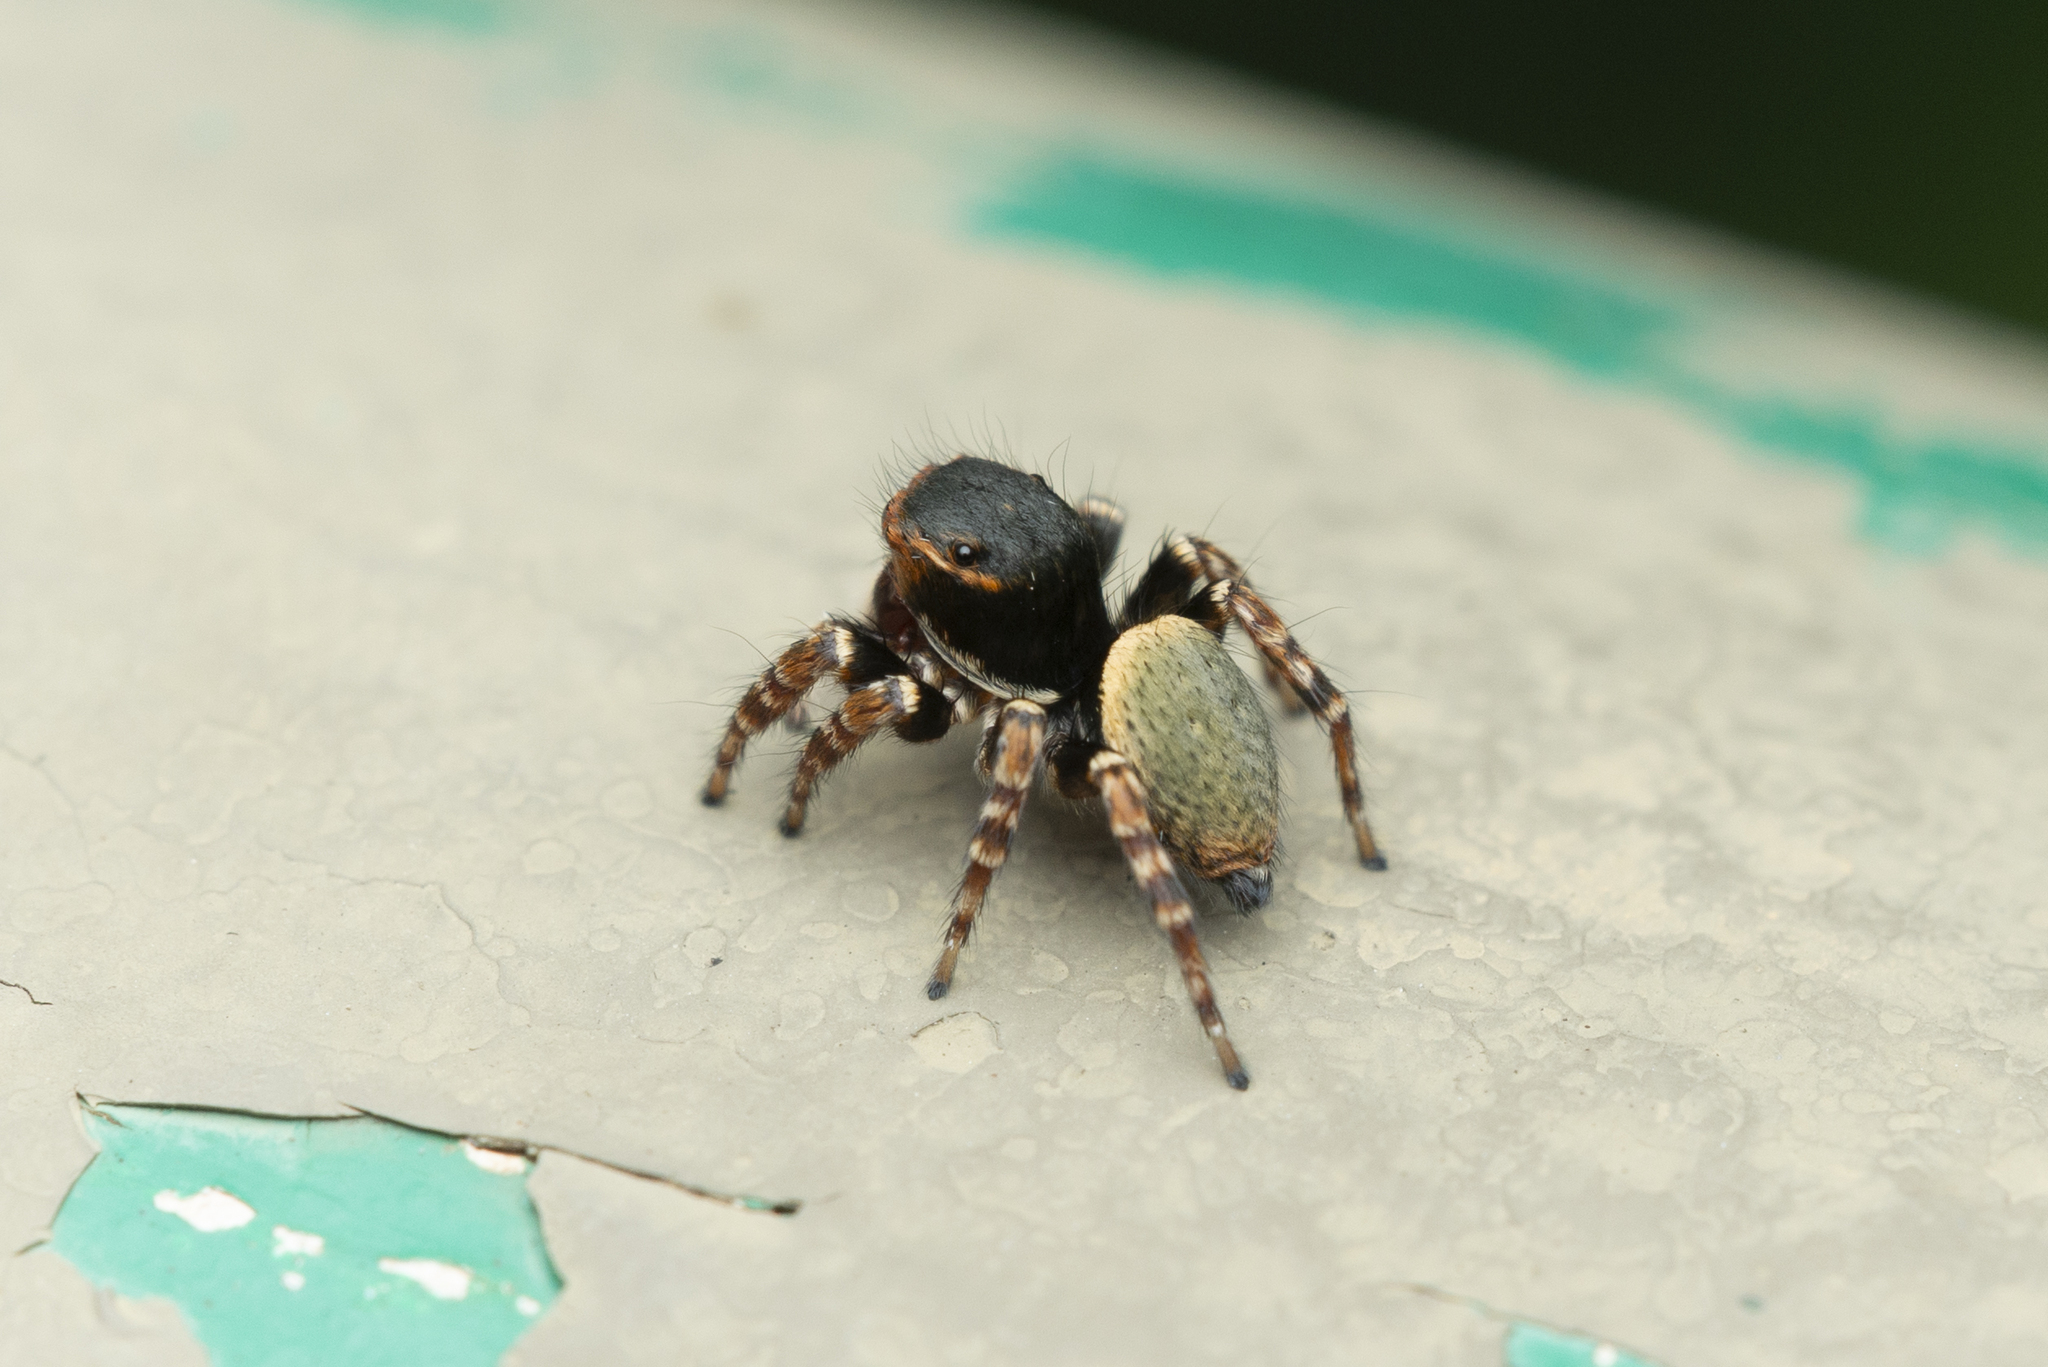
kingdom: Animalia
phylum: Arthropoda
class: Arachnida
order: Araneae
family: Salticidae
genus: Carrhotus
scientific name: Carrhotus sannio
